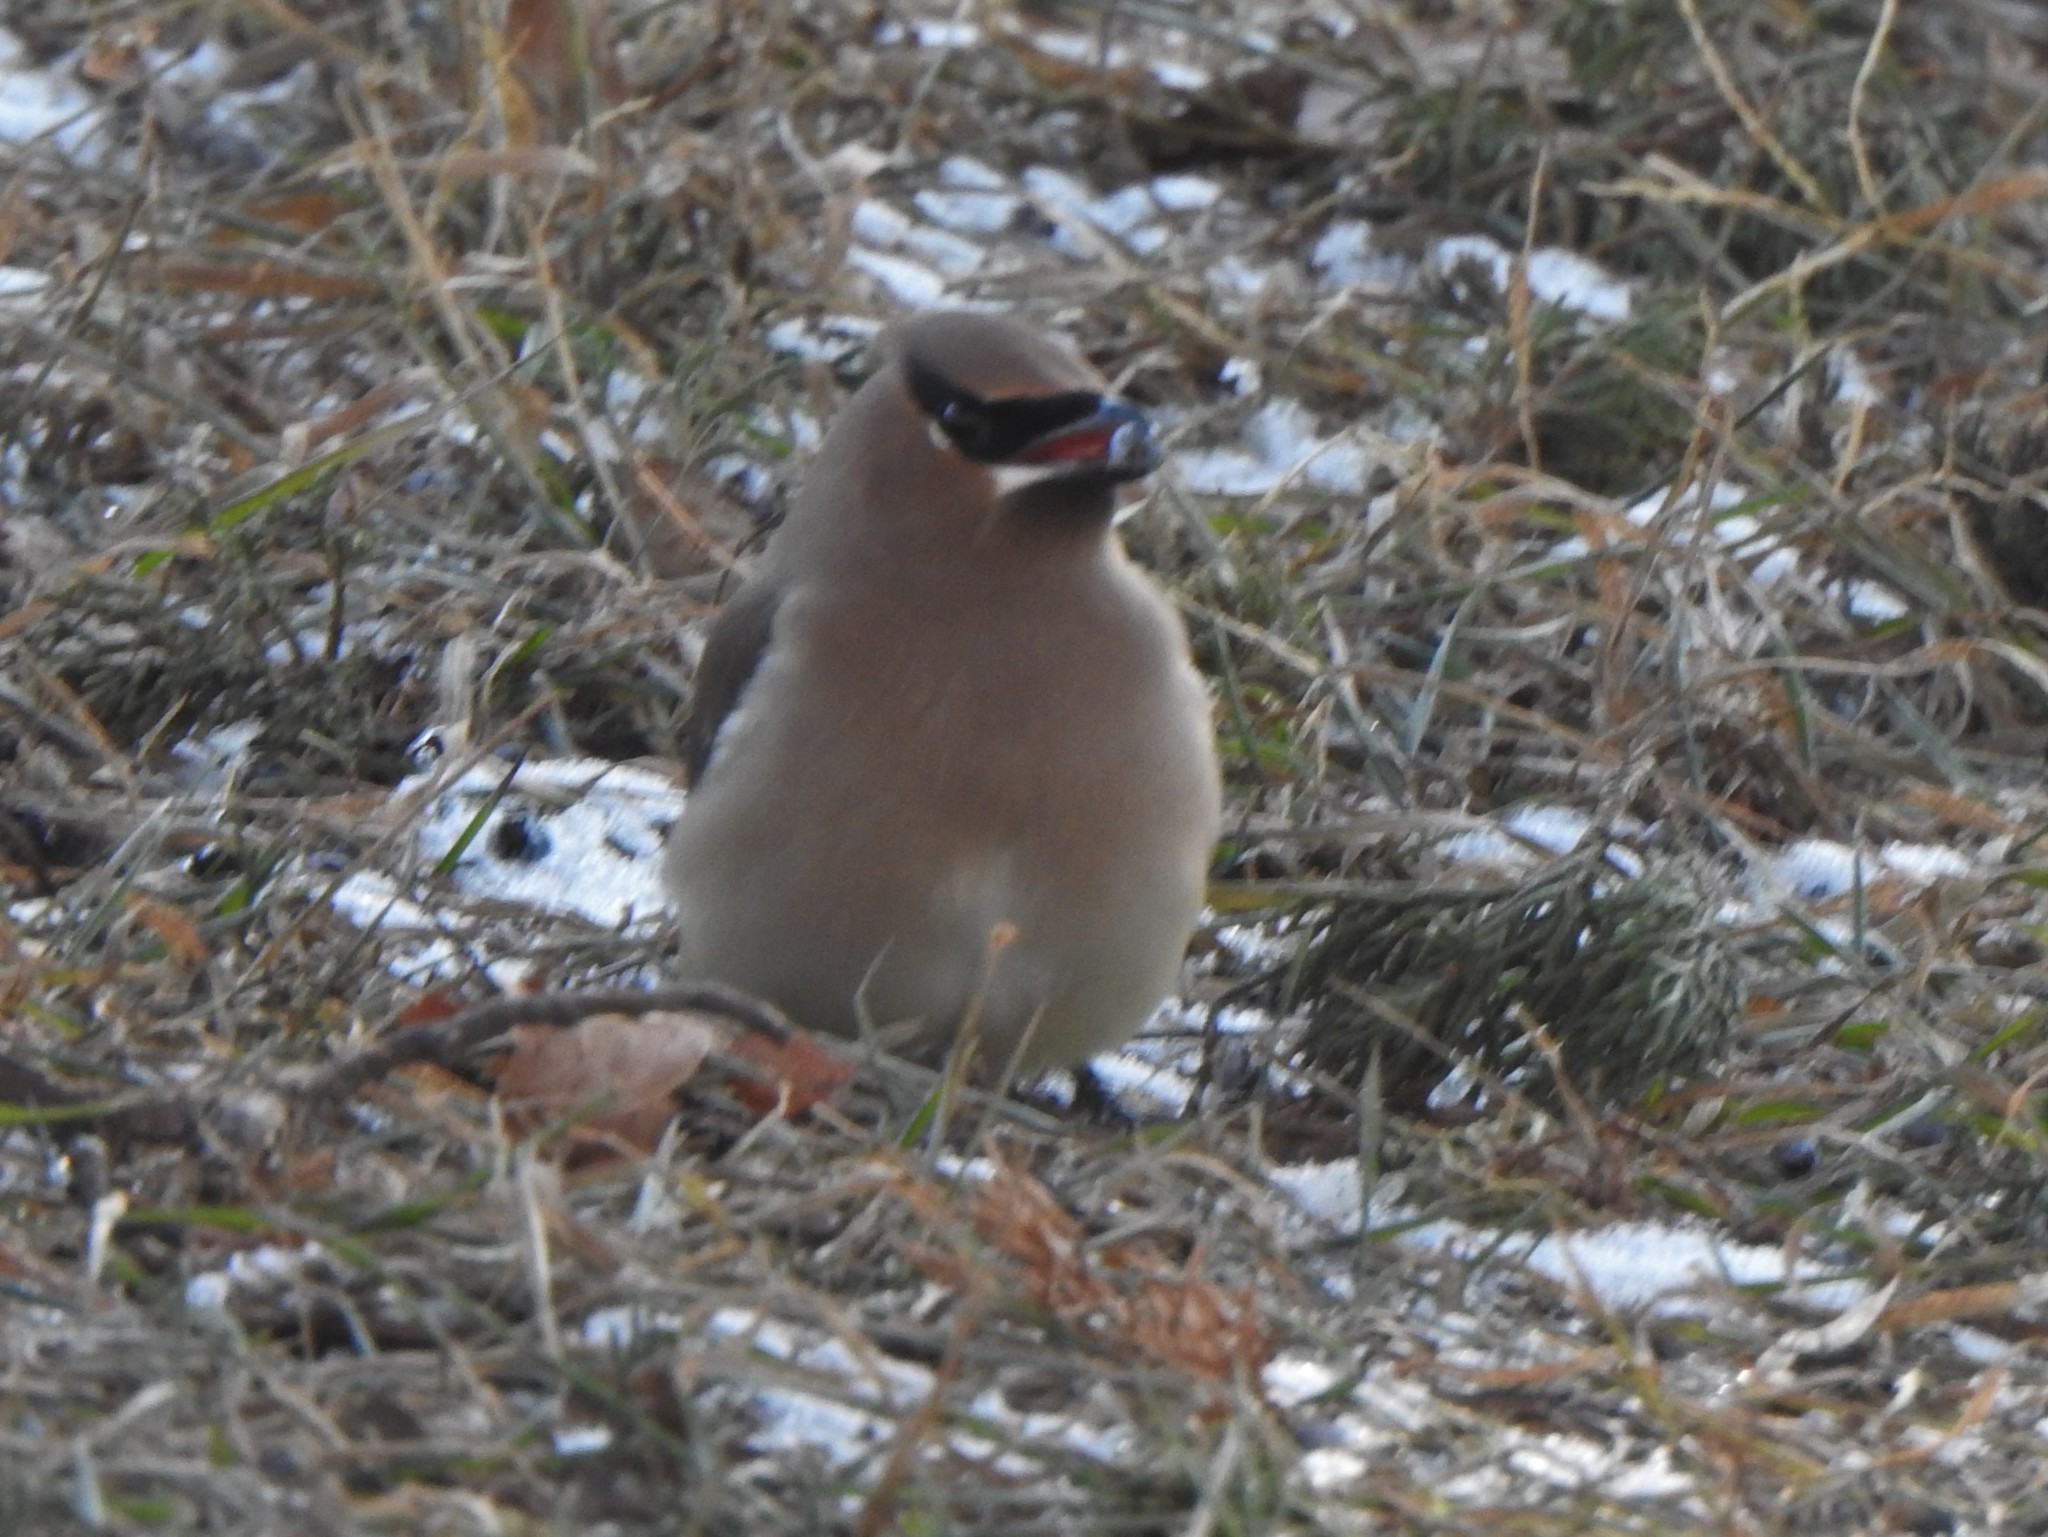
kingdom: Animalia
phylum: Chordata
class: Aves
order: Passeriformes
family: Bombycillidae
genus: Bombycilla
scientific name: Bombycilla cedrorum
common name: Cedar waxwing
